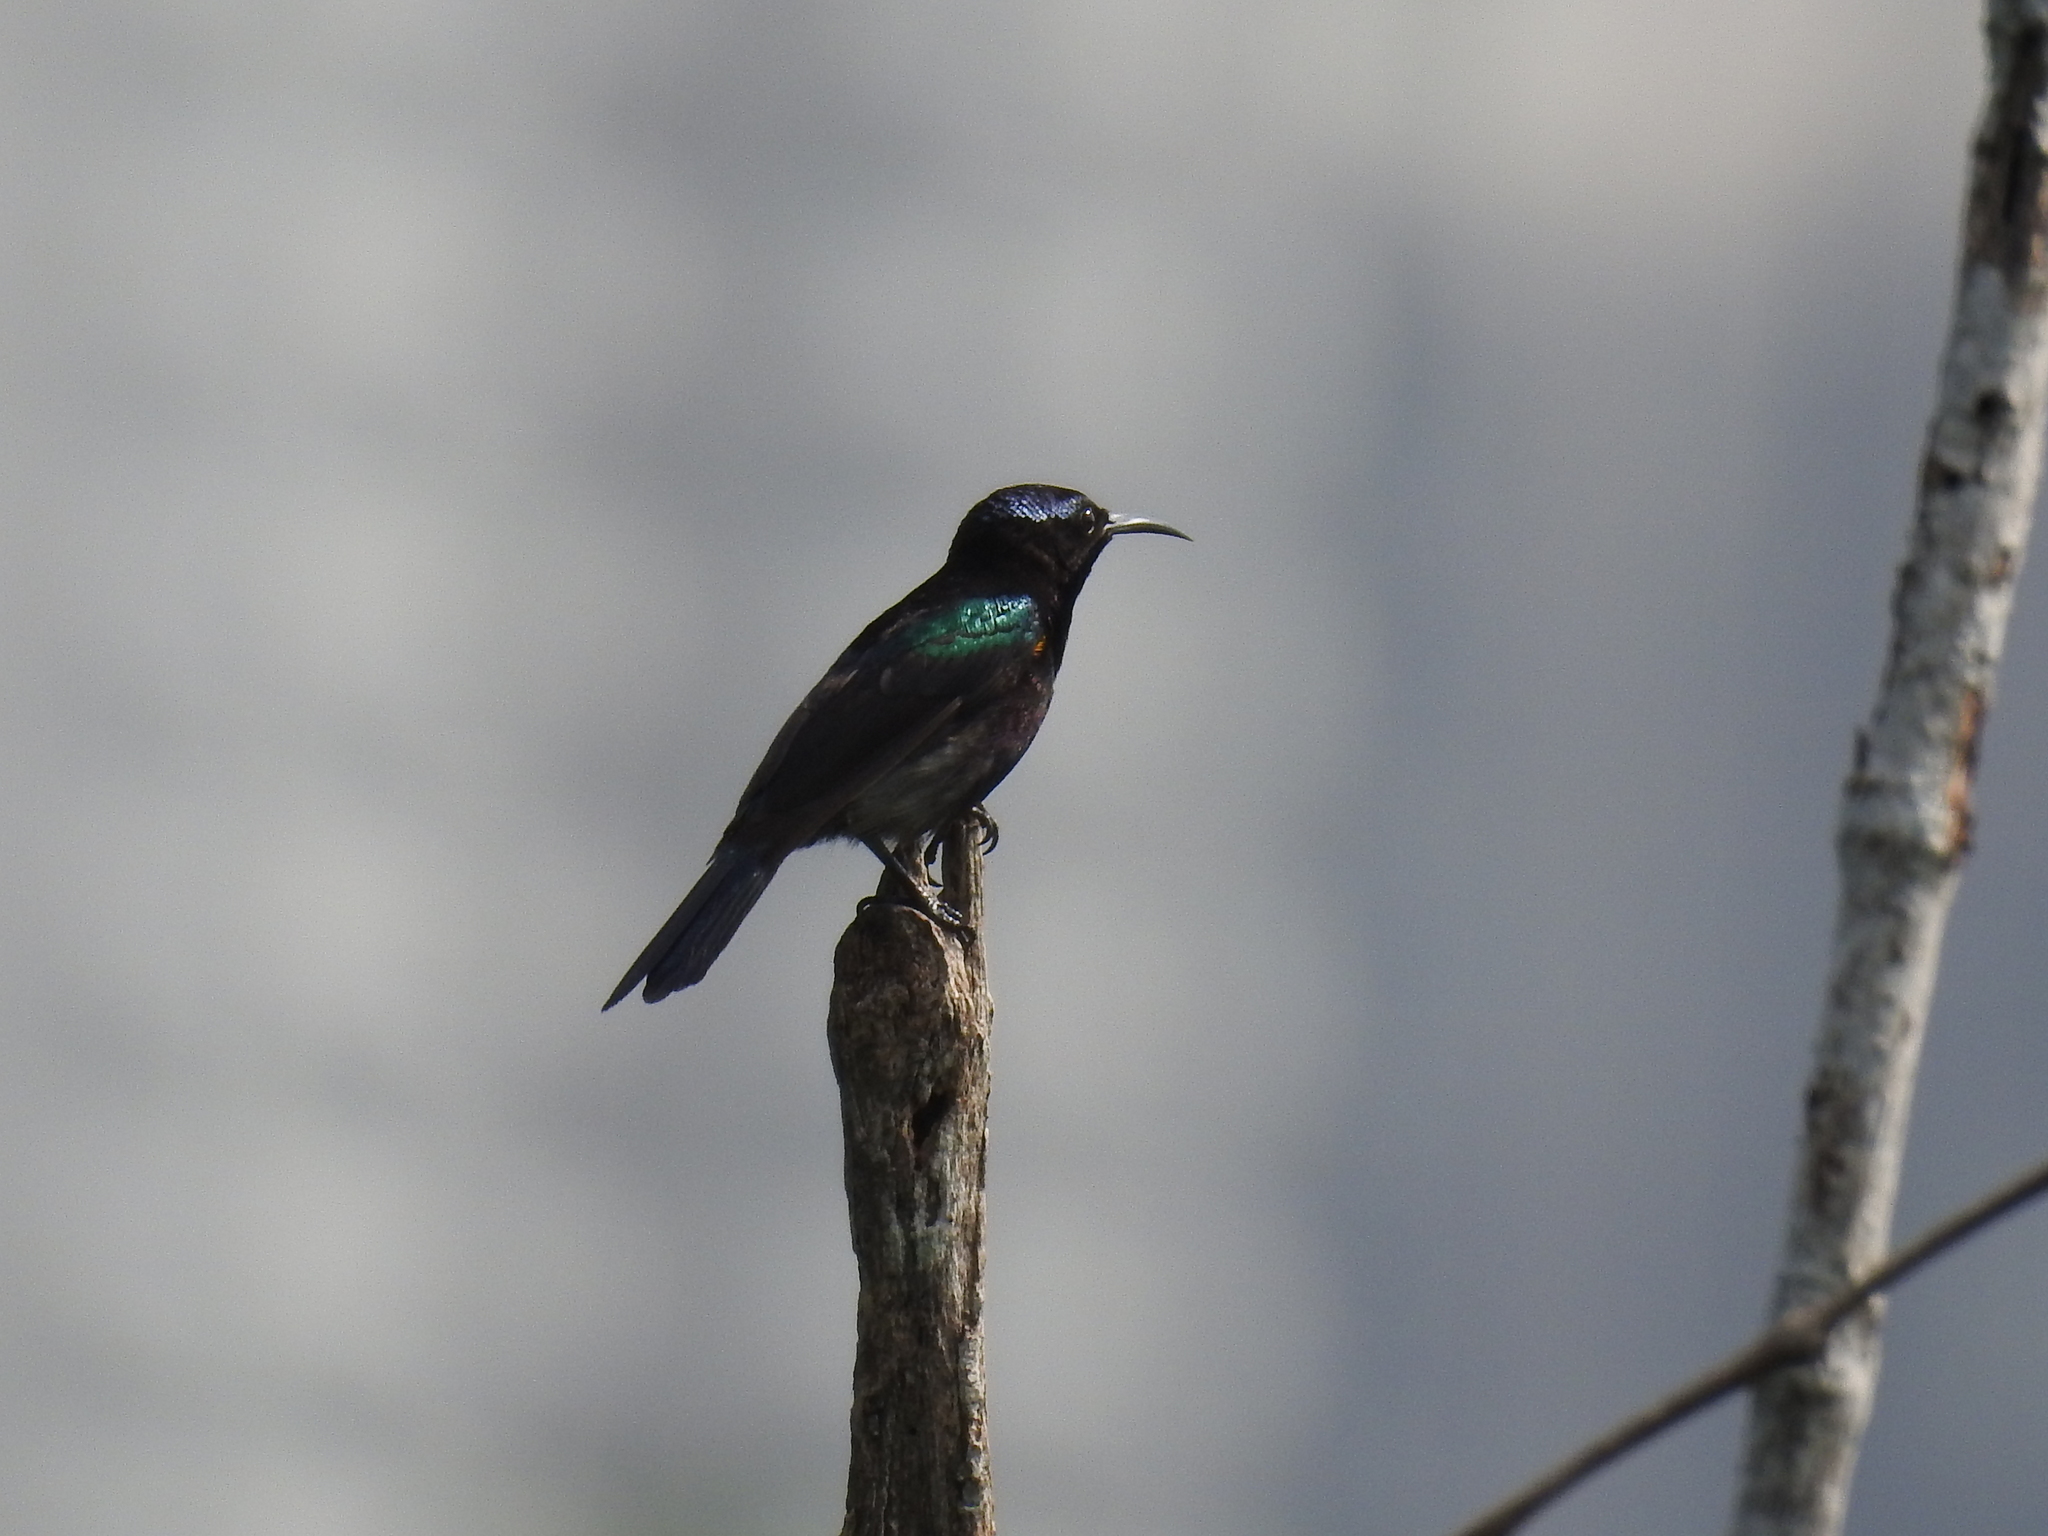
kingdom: Animalia
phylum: Chordata
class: Aves
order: Passeriformes
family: Nectariniidae
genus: Leptocoma
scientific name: Leptocoma calcostetha
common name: Copper-throated sunbird
